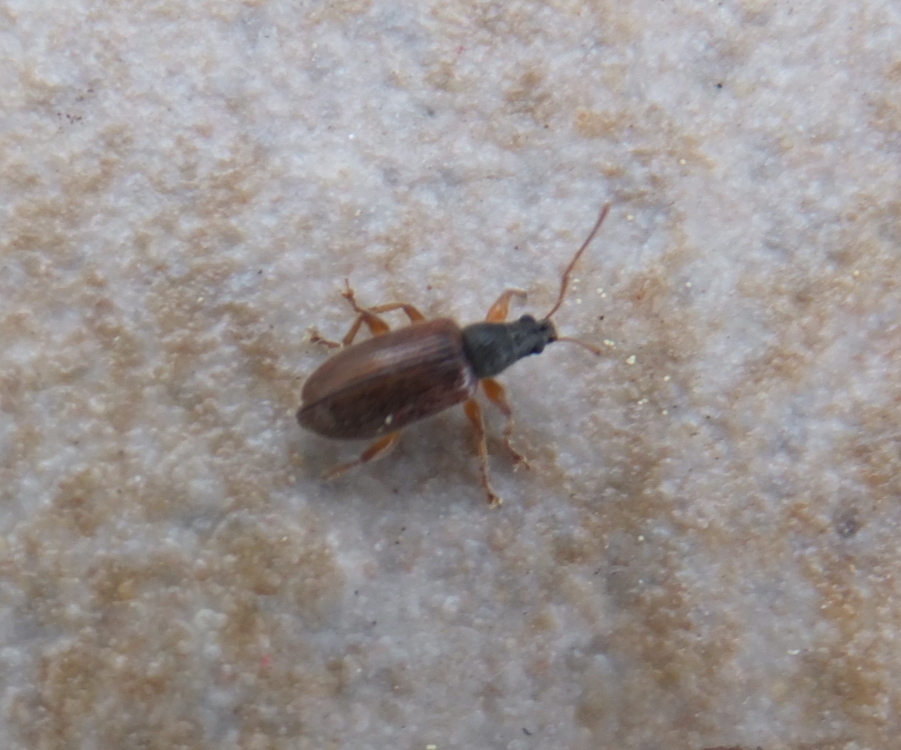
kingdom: Animalia
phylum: Arthropoda
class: Insecta
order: Coleoptera
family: Curculionidae
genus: Phyllobius
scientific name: Phyllobius oblongus
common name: Brown leaf weevil
